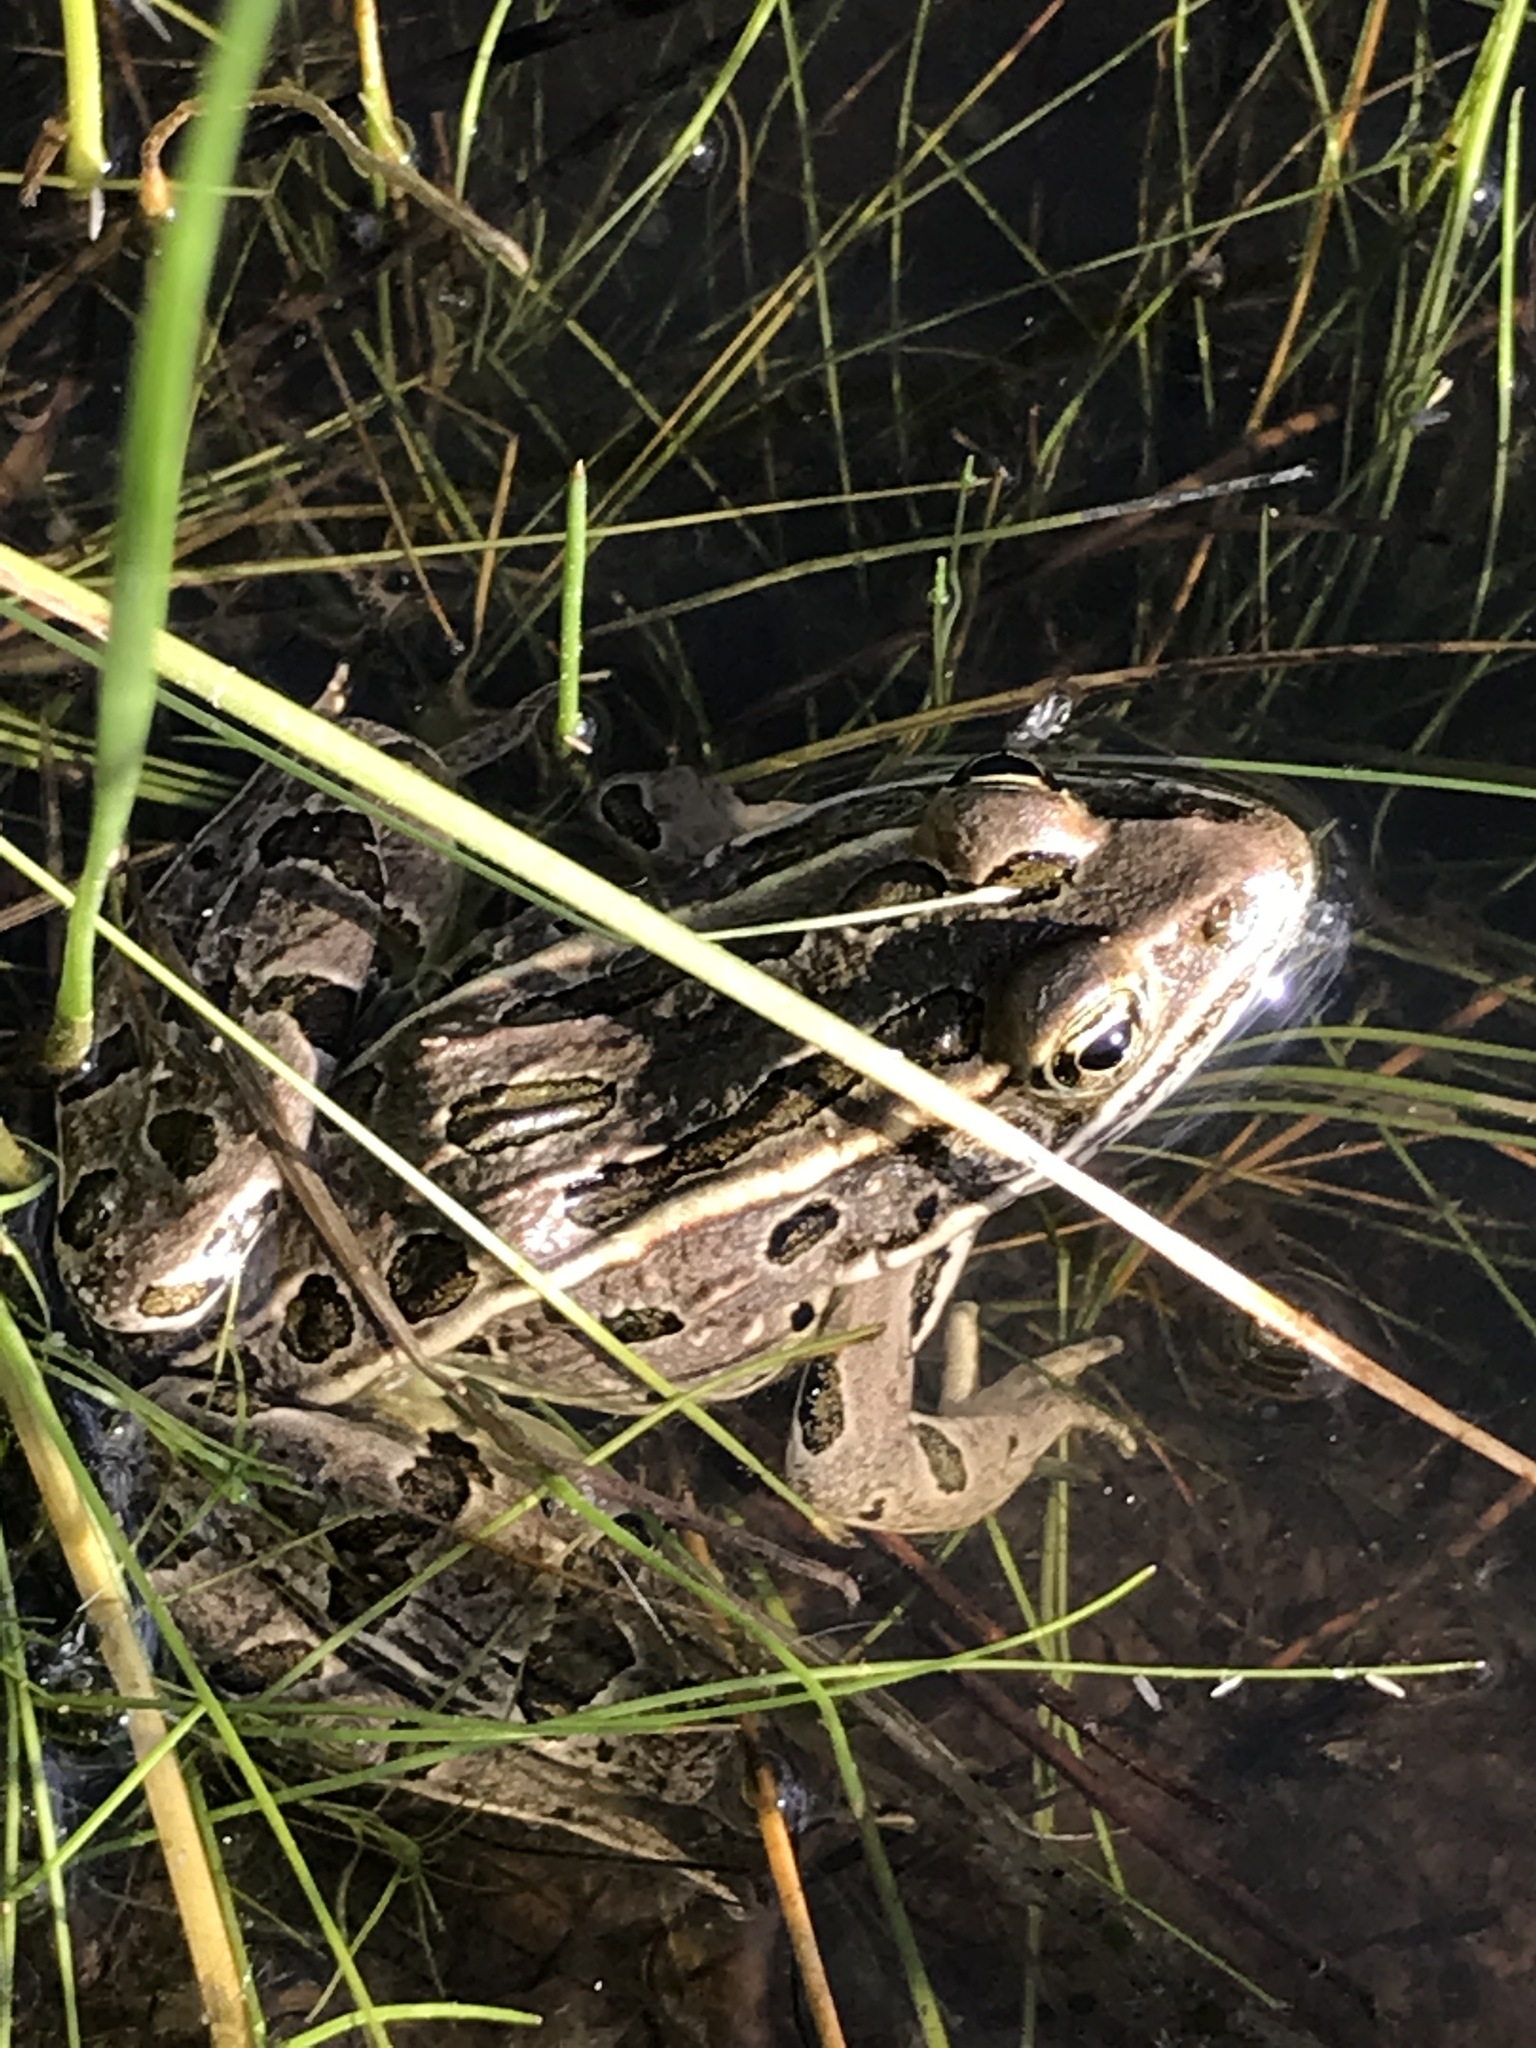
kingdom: Animalia
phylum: Chordata
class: Amphibia
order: Anura
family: Ranidae
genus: Lithobates
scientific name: Lithobates pipiens
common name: Northern leopard frog
